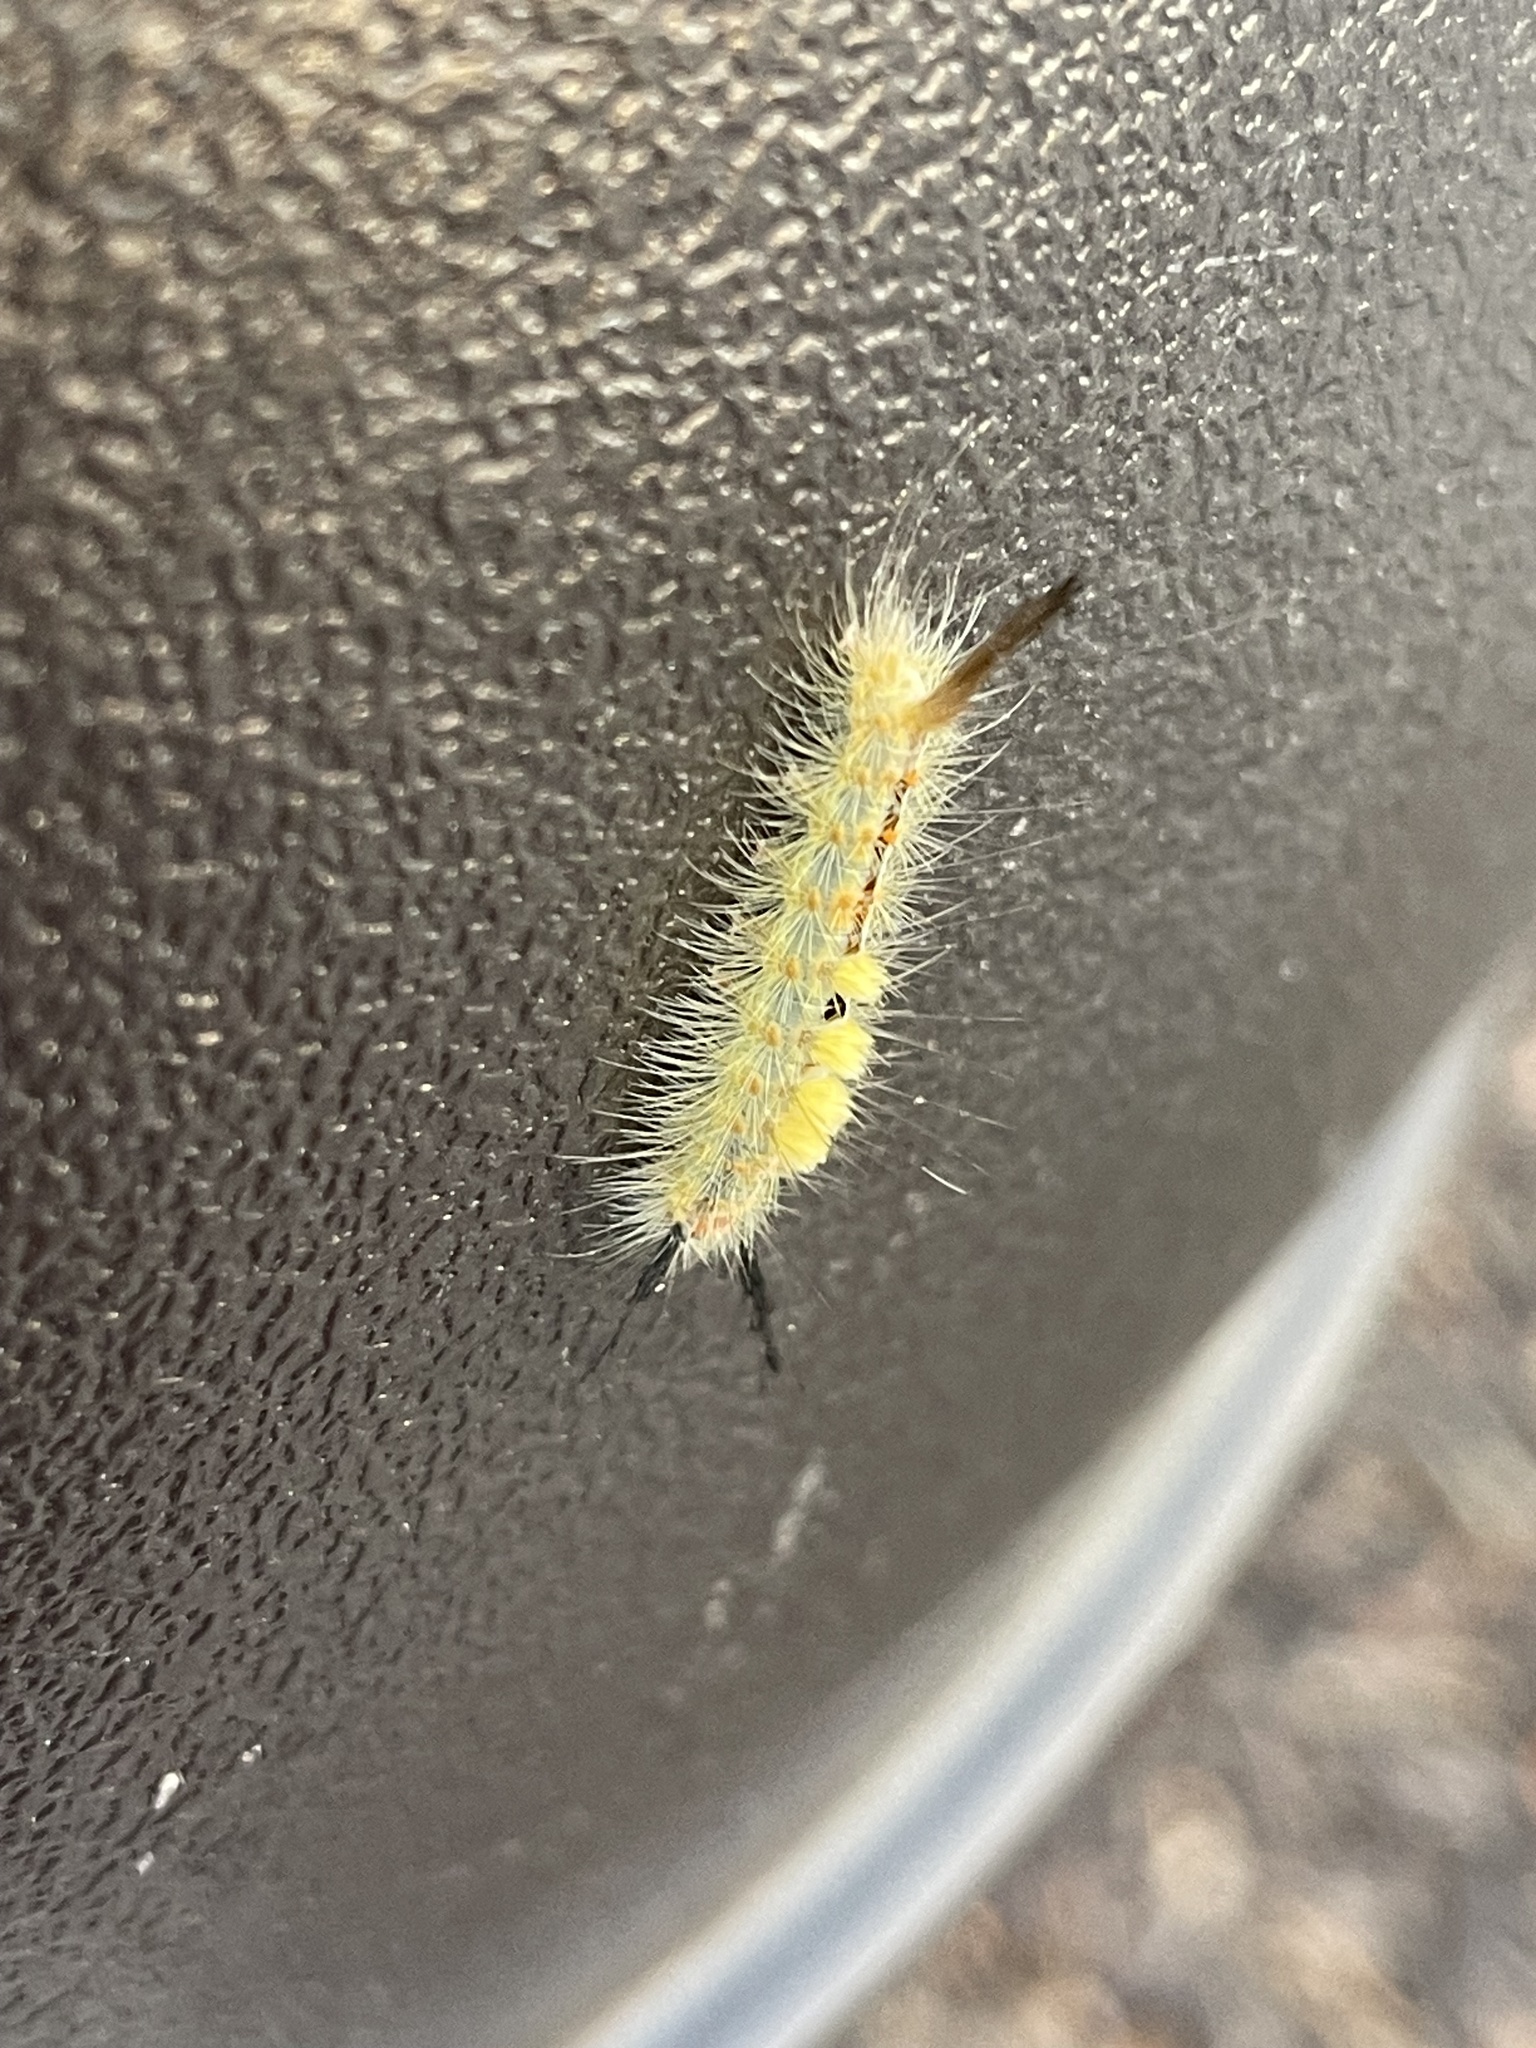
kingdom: Animalia
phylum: Arthropoda
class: Insecta
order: Lepidoptera
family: Erebidae
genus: Orgyia
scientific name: Orgyia detrita
